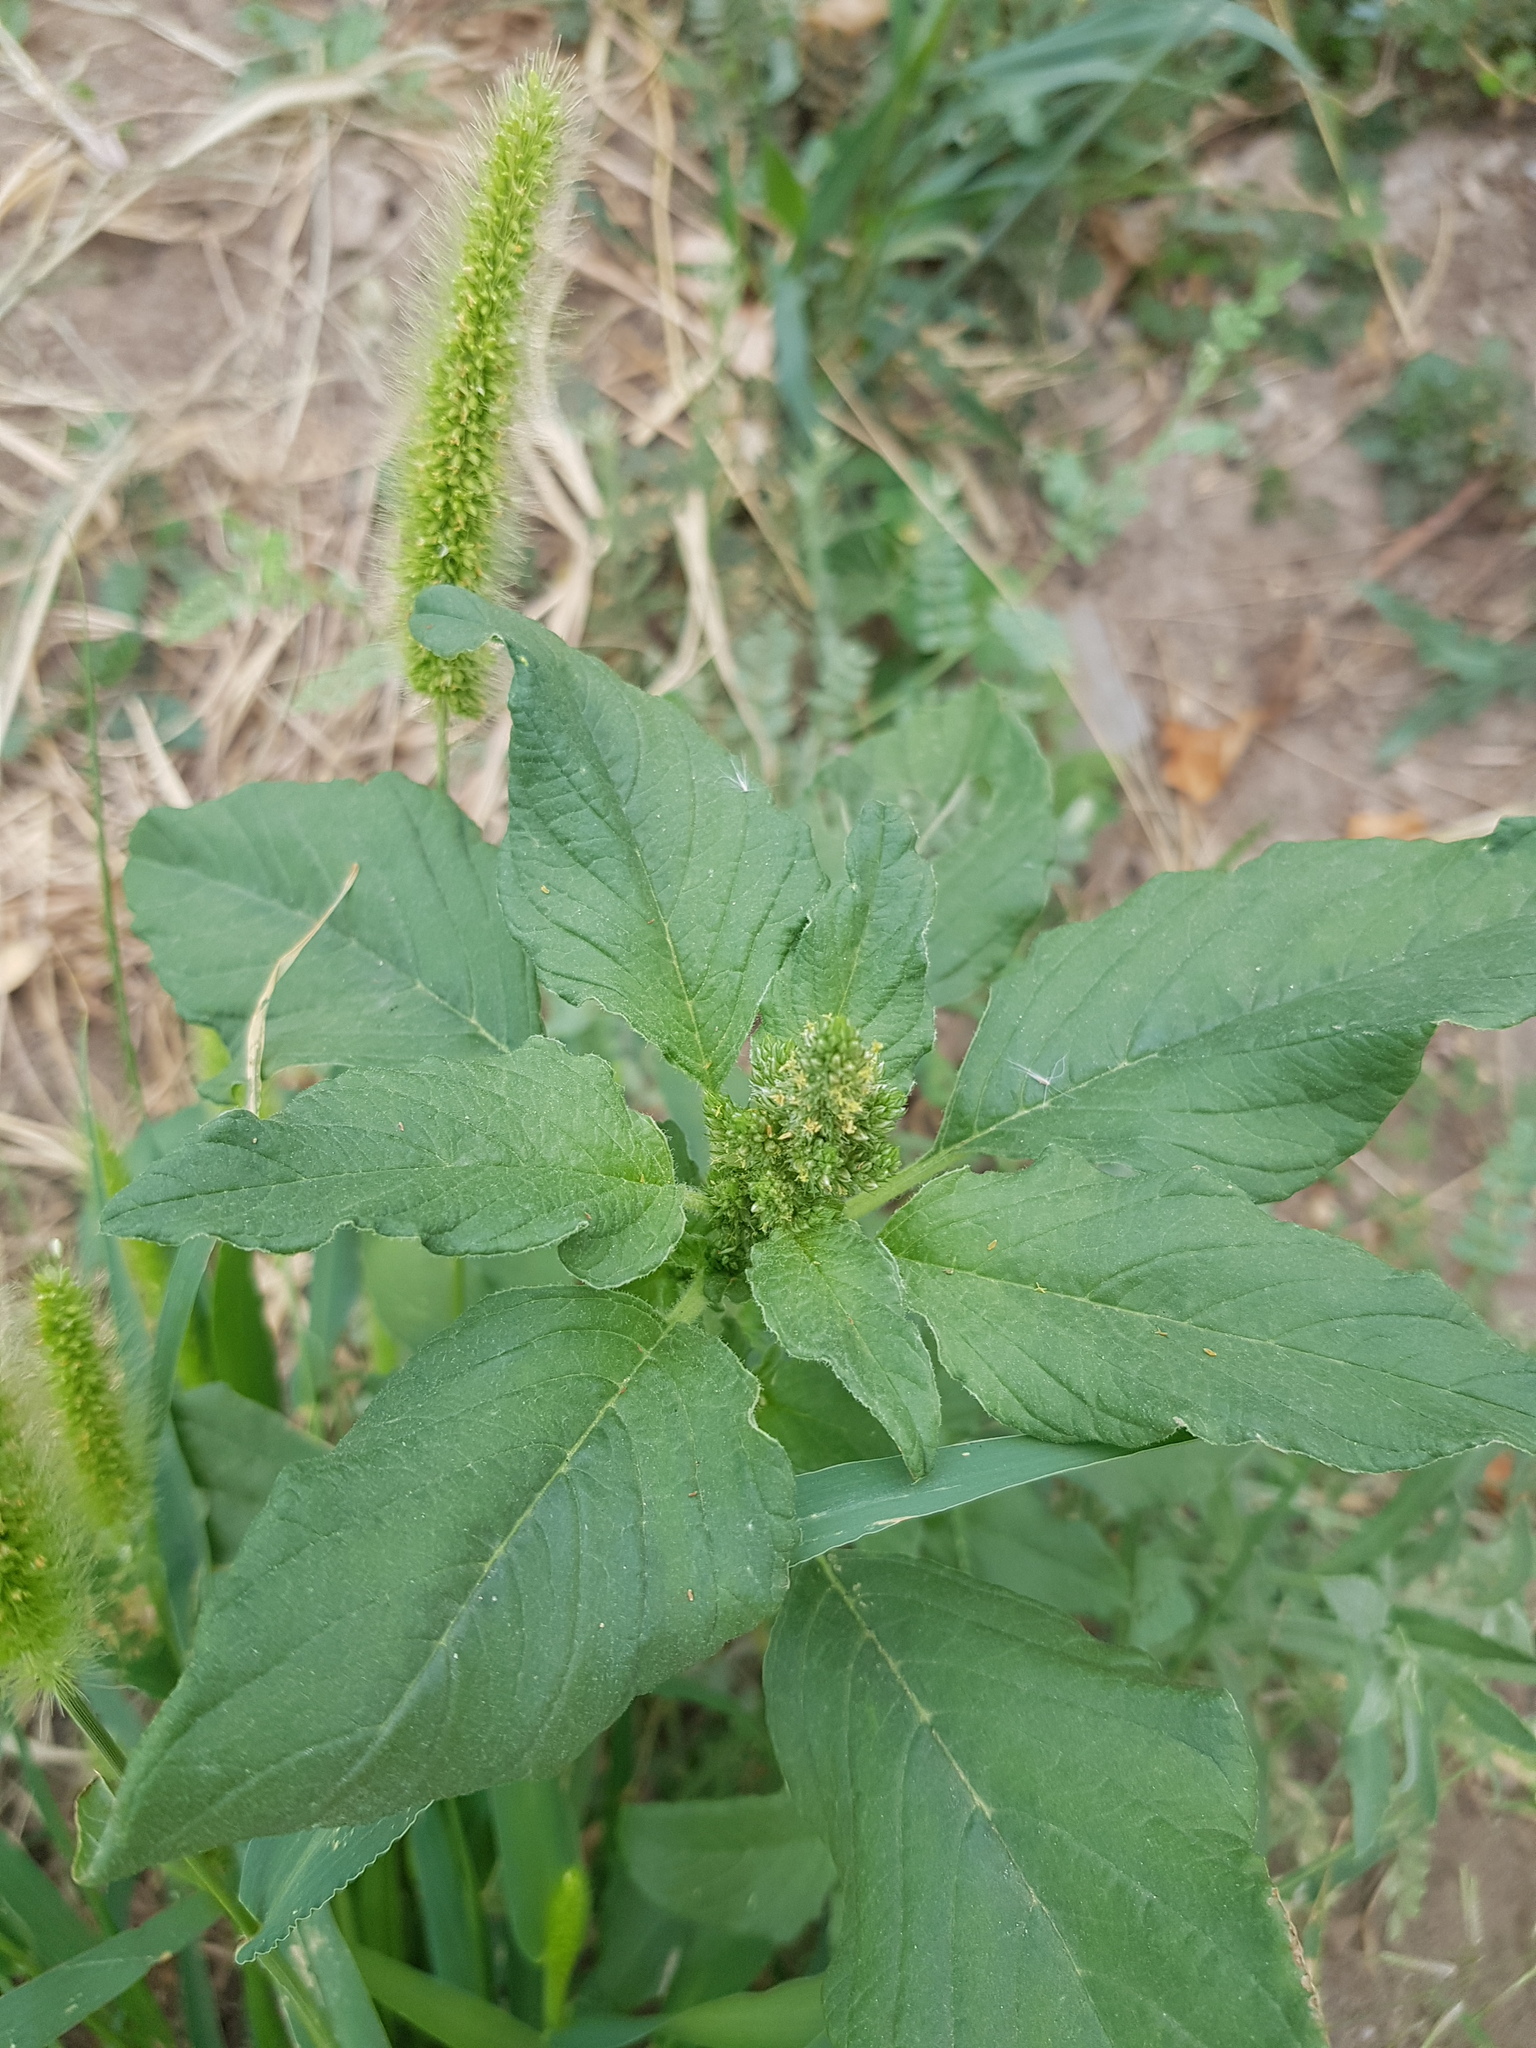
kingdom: Plantae
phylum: Tracheophyta
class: Magnoliopsida
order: Caryophyllales
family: Amaranthaceae
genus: Amaranthus
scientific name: Amaranthus retroflexus
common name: Redroot amaranth
